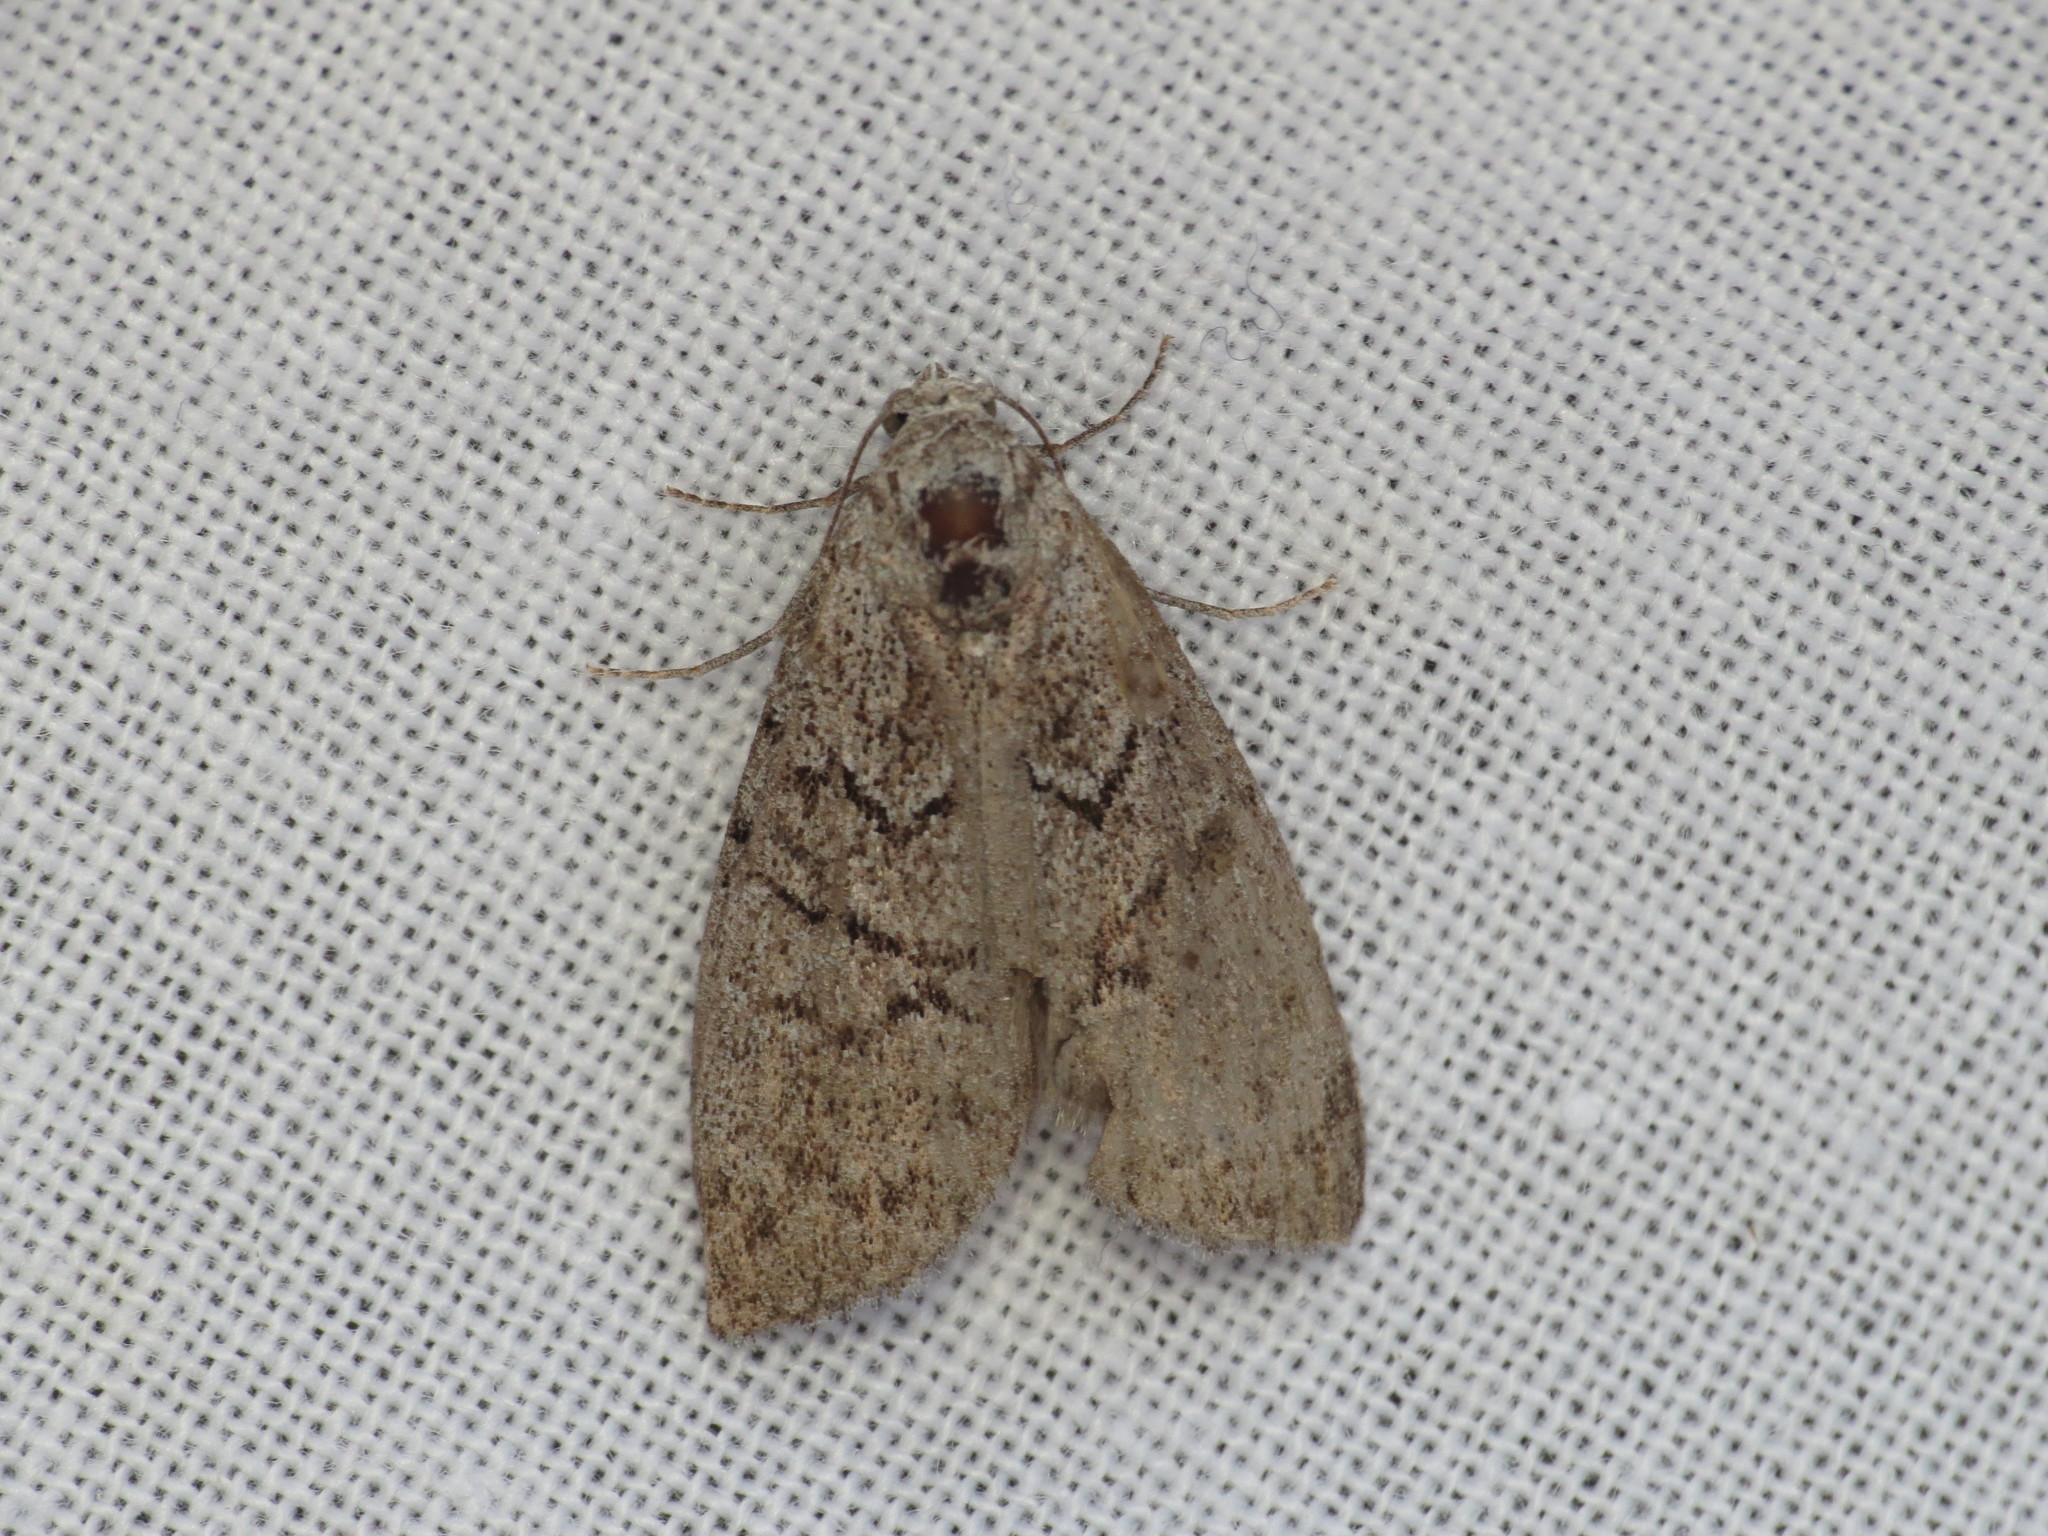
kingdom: Animalia
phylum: Arthropoda
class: Insecta
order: Lepidoptera
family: Nolidae
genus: Uraba
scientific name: Uraba lugens
